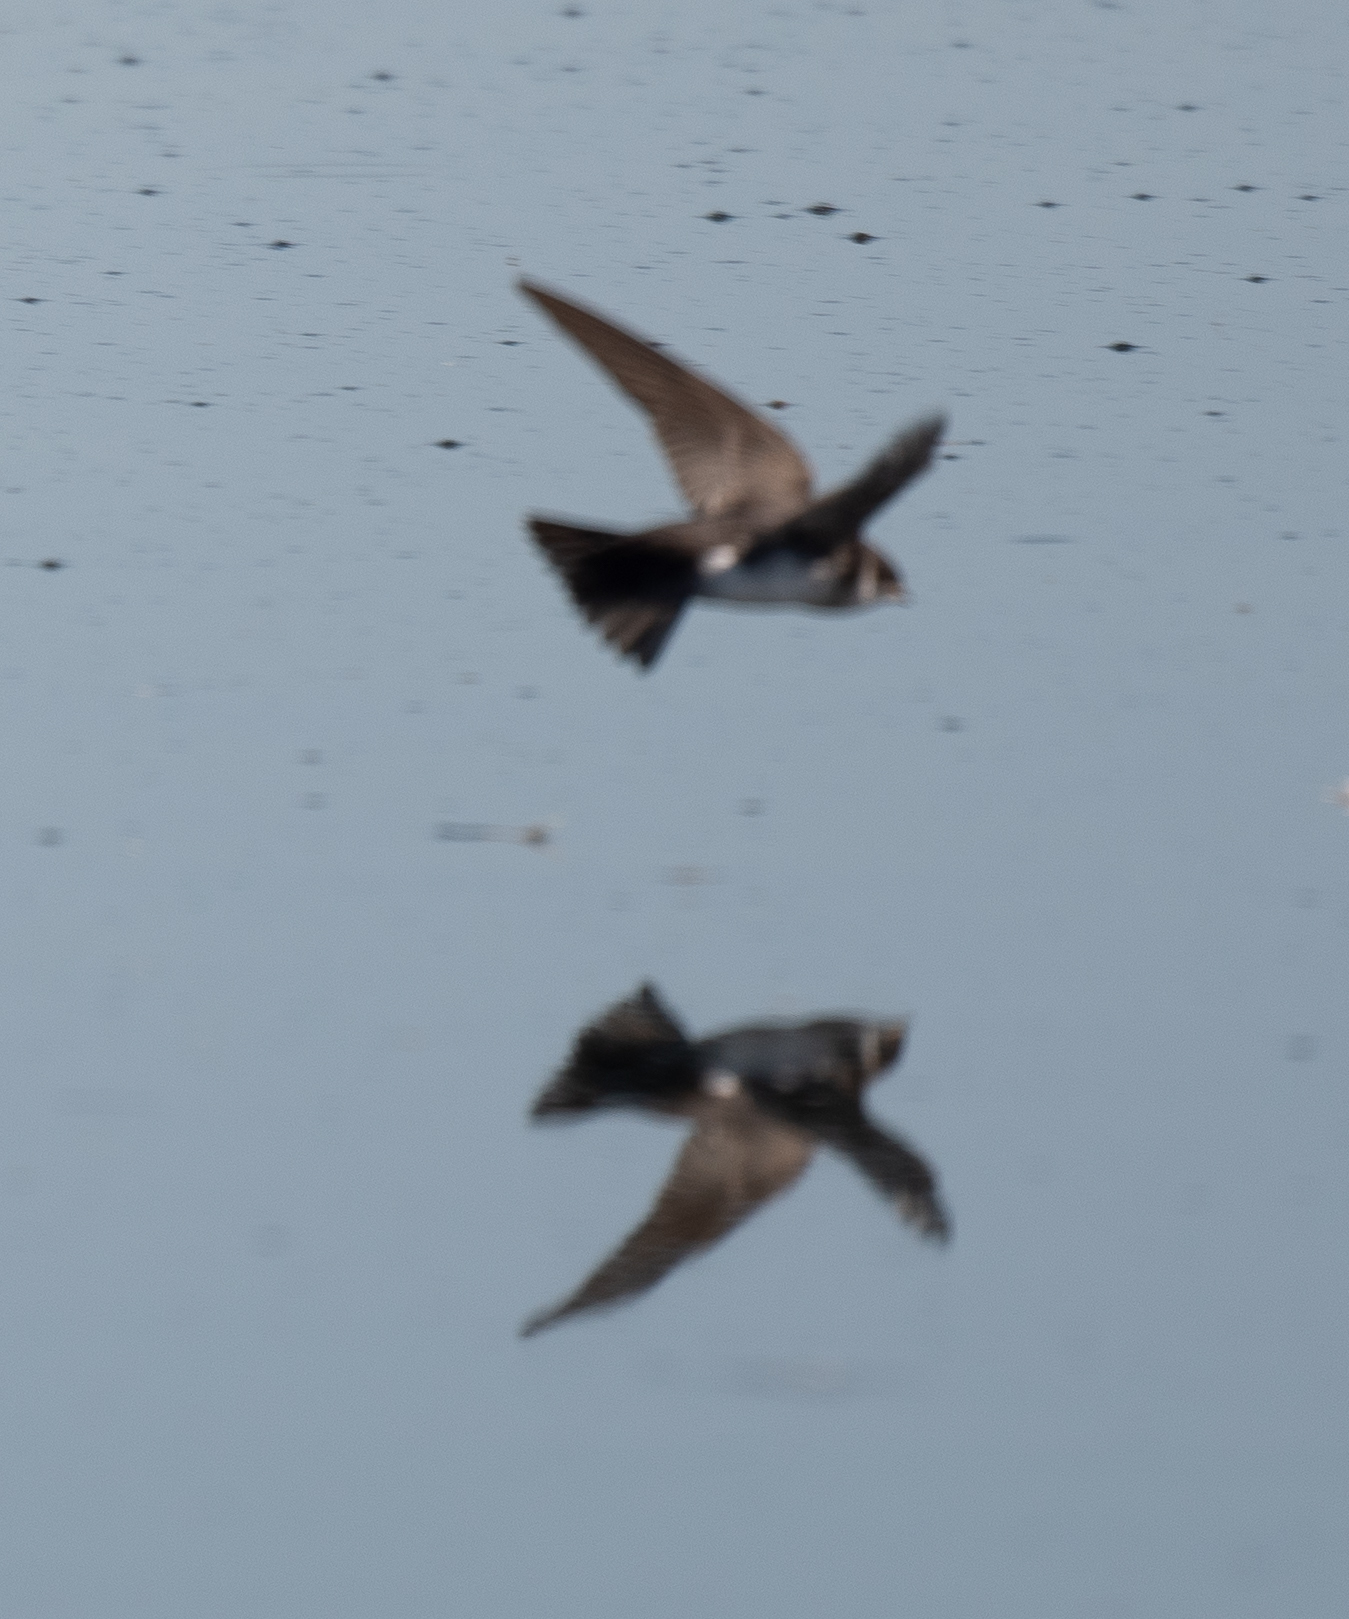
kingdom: Animalia
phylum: Chordata
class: Aves
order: Passeriformes
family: Hirundinidae
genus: Riparia
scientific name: Riparia riparia
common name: Sand martin
